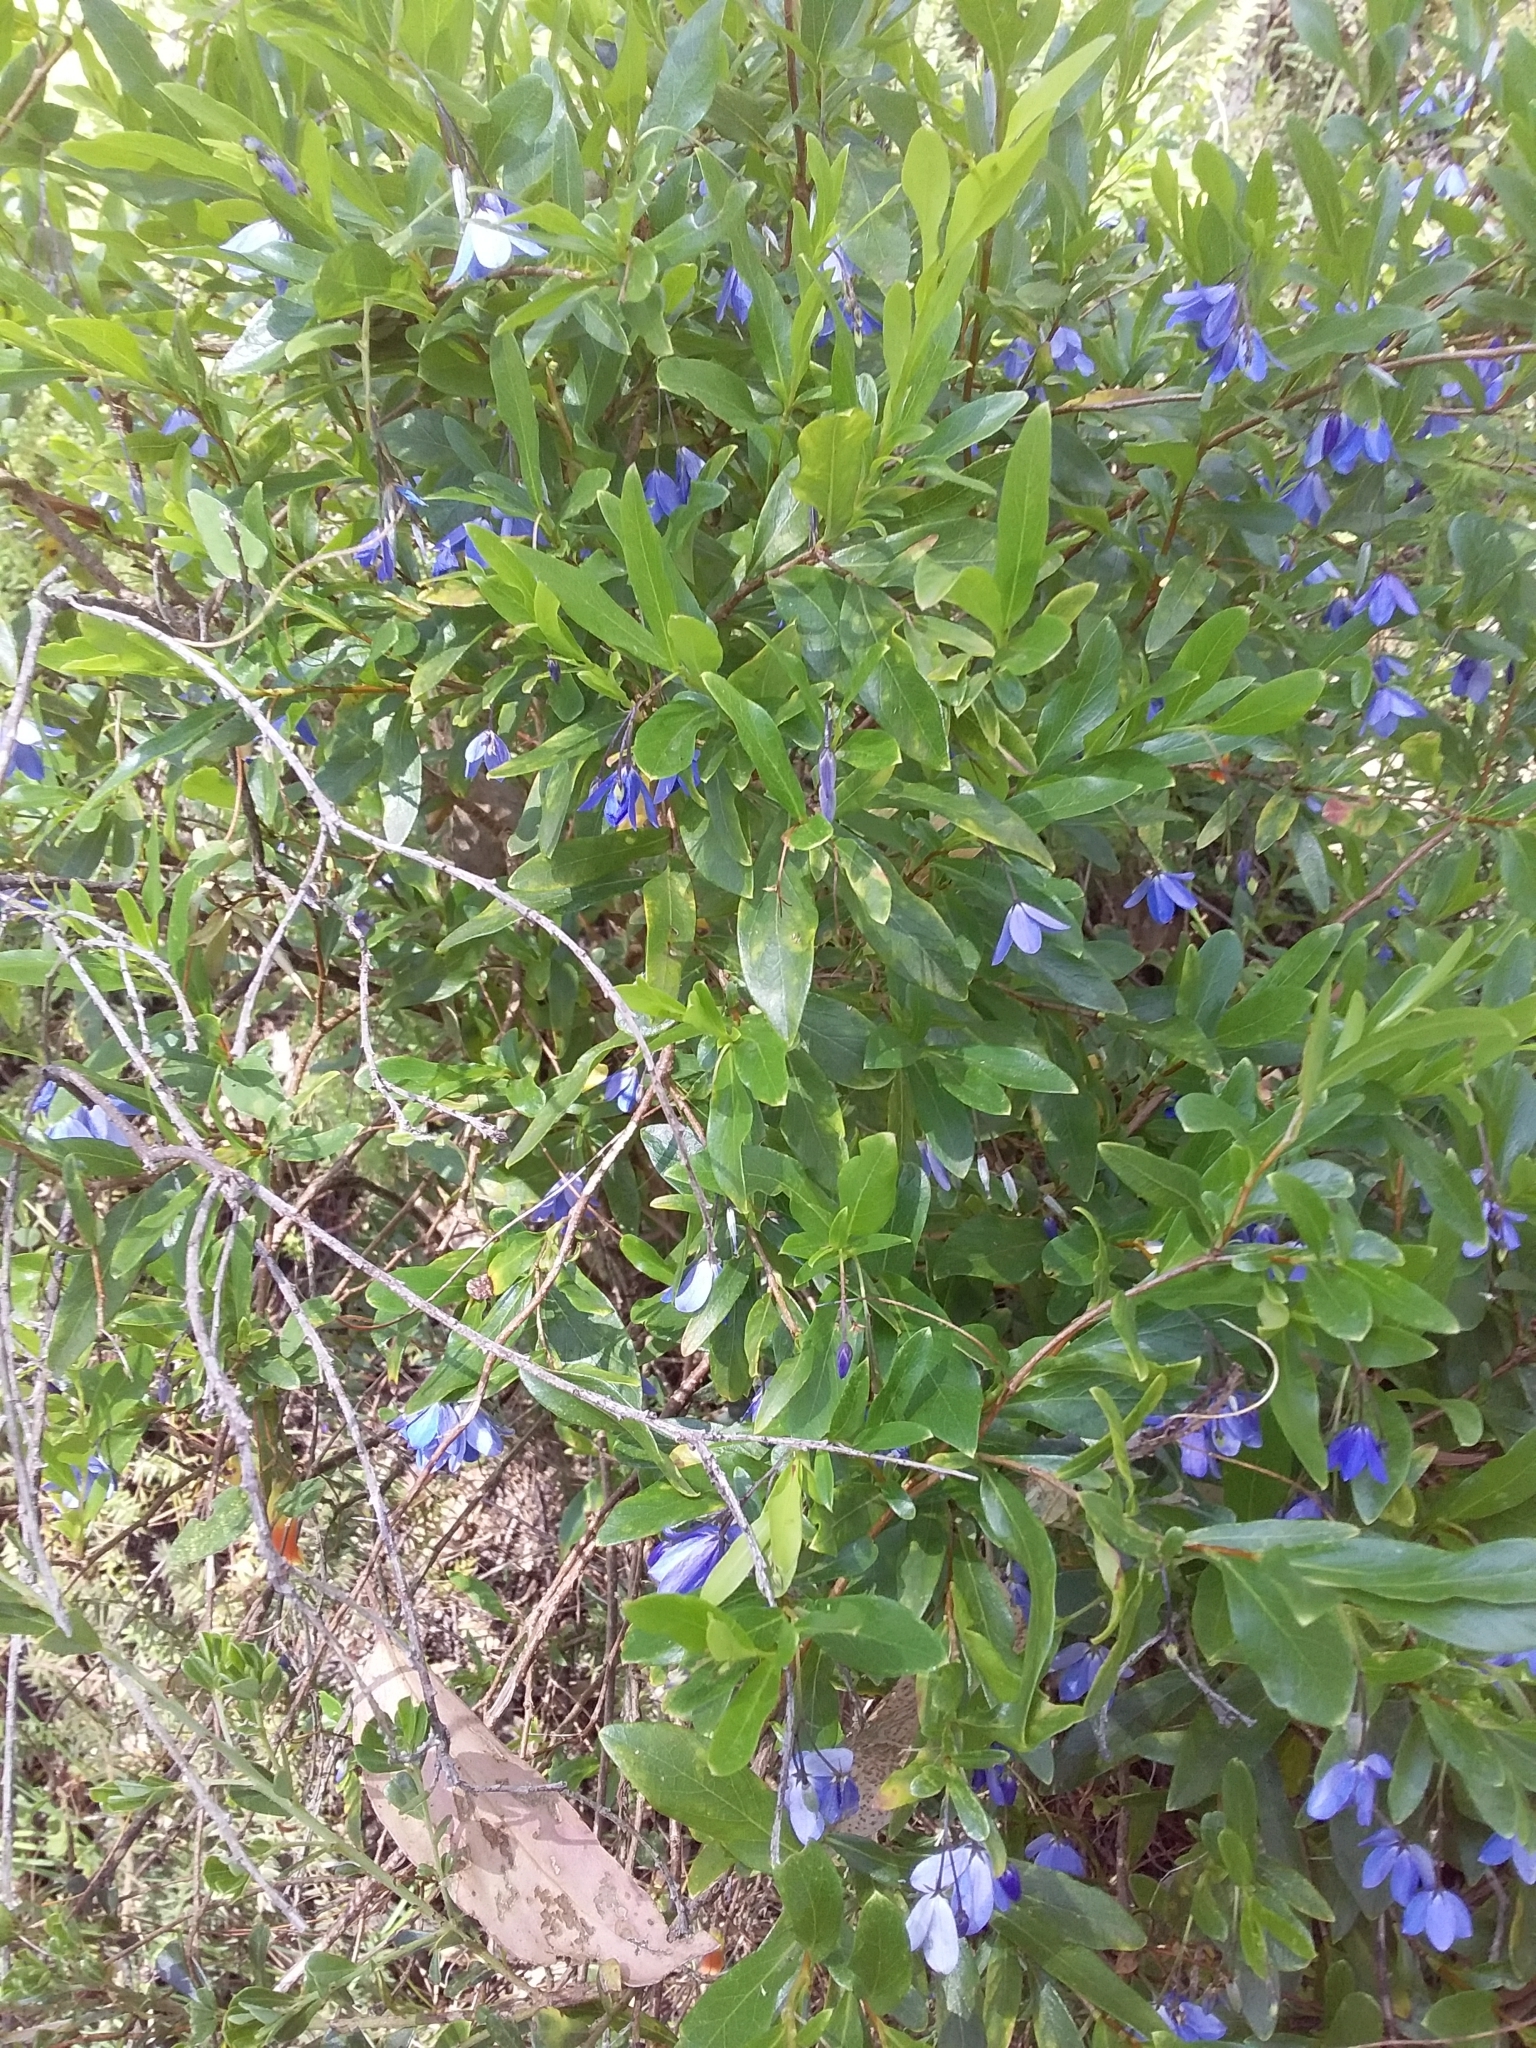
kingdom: Plantae
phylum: Tracheophyta
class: Magnoliopsida
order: Apiales
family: Pittosporaceae
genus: Billardiera
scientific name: Billardiera fusiformis
